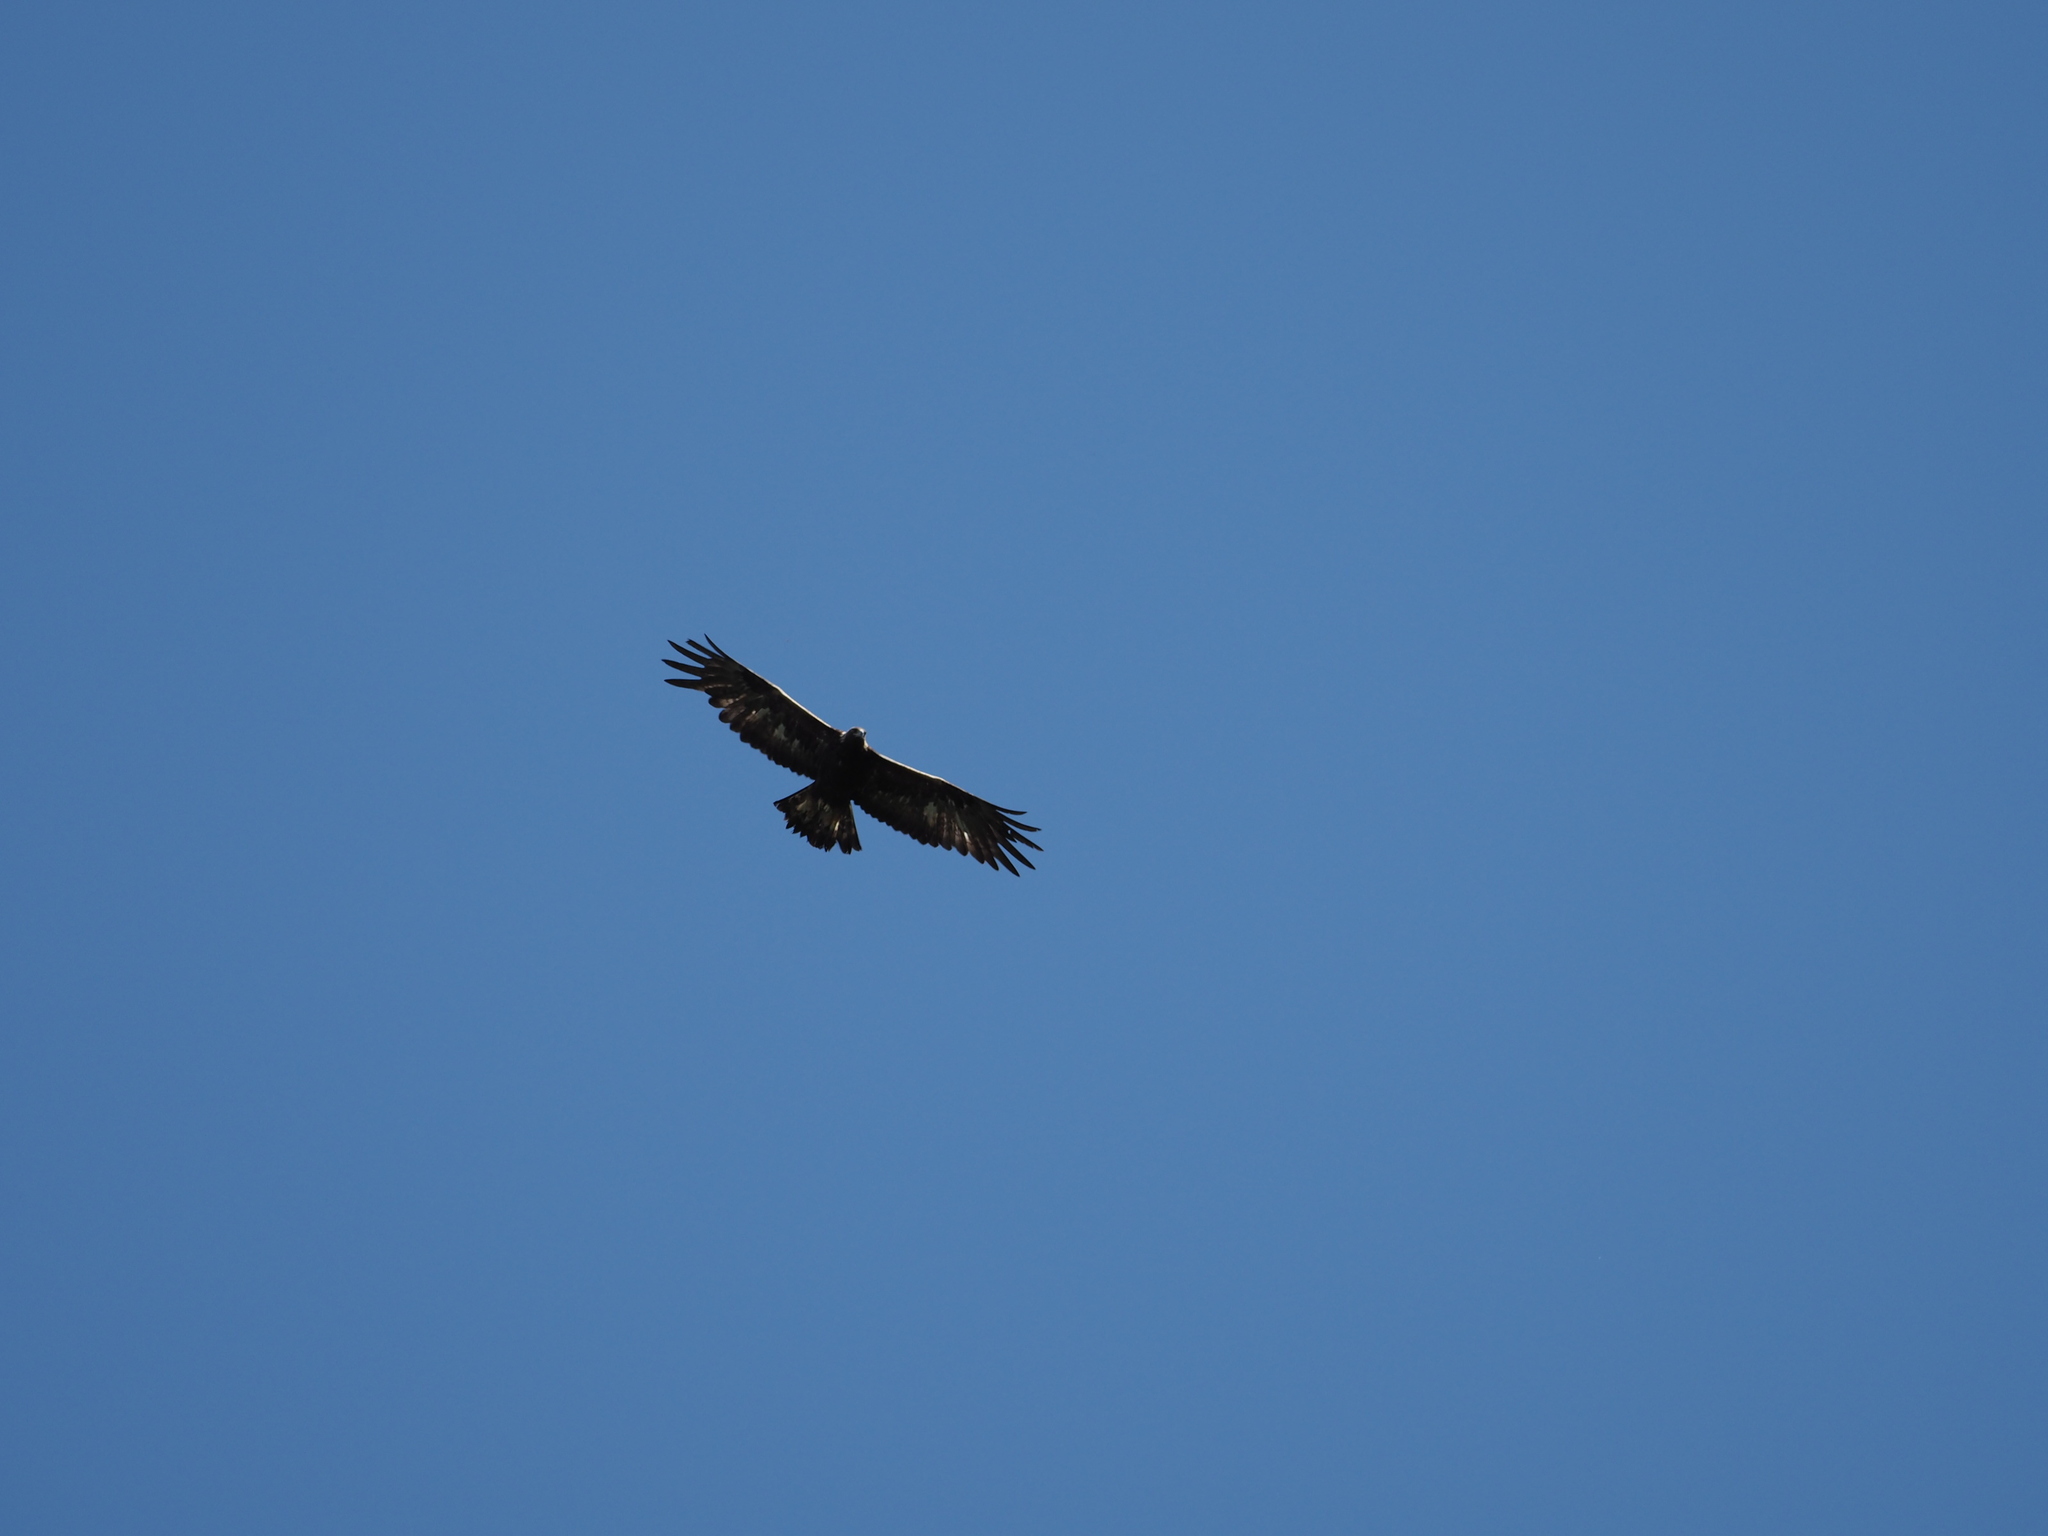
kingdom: Animalia
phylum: Chordata
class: Aves
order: Accipitriformes
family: Accipitridae
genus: Aquila
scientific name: Aquila chrysaetos
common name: Golden eagle
